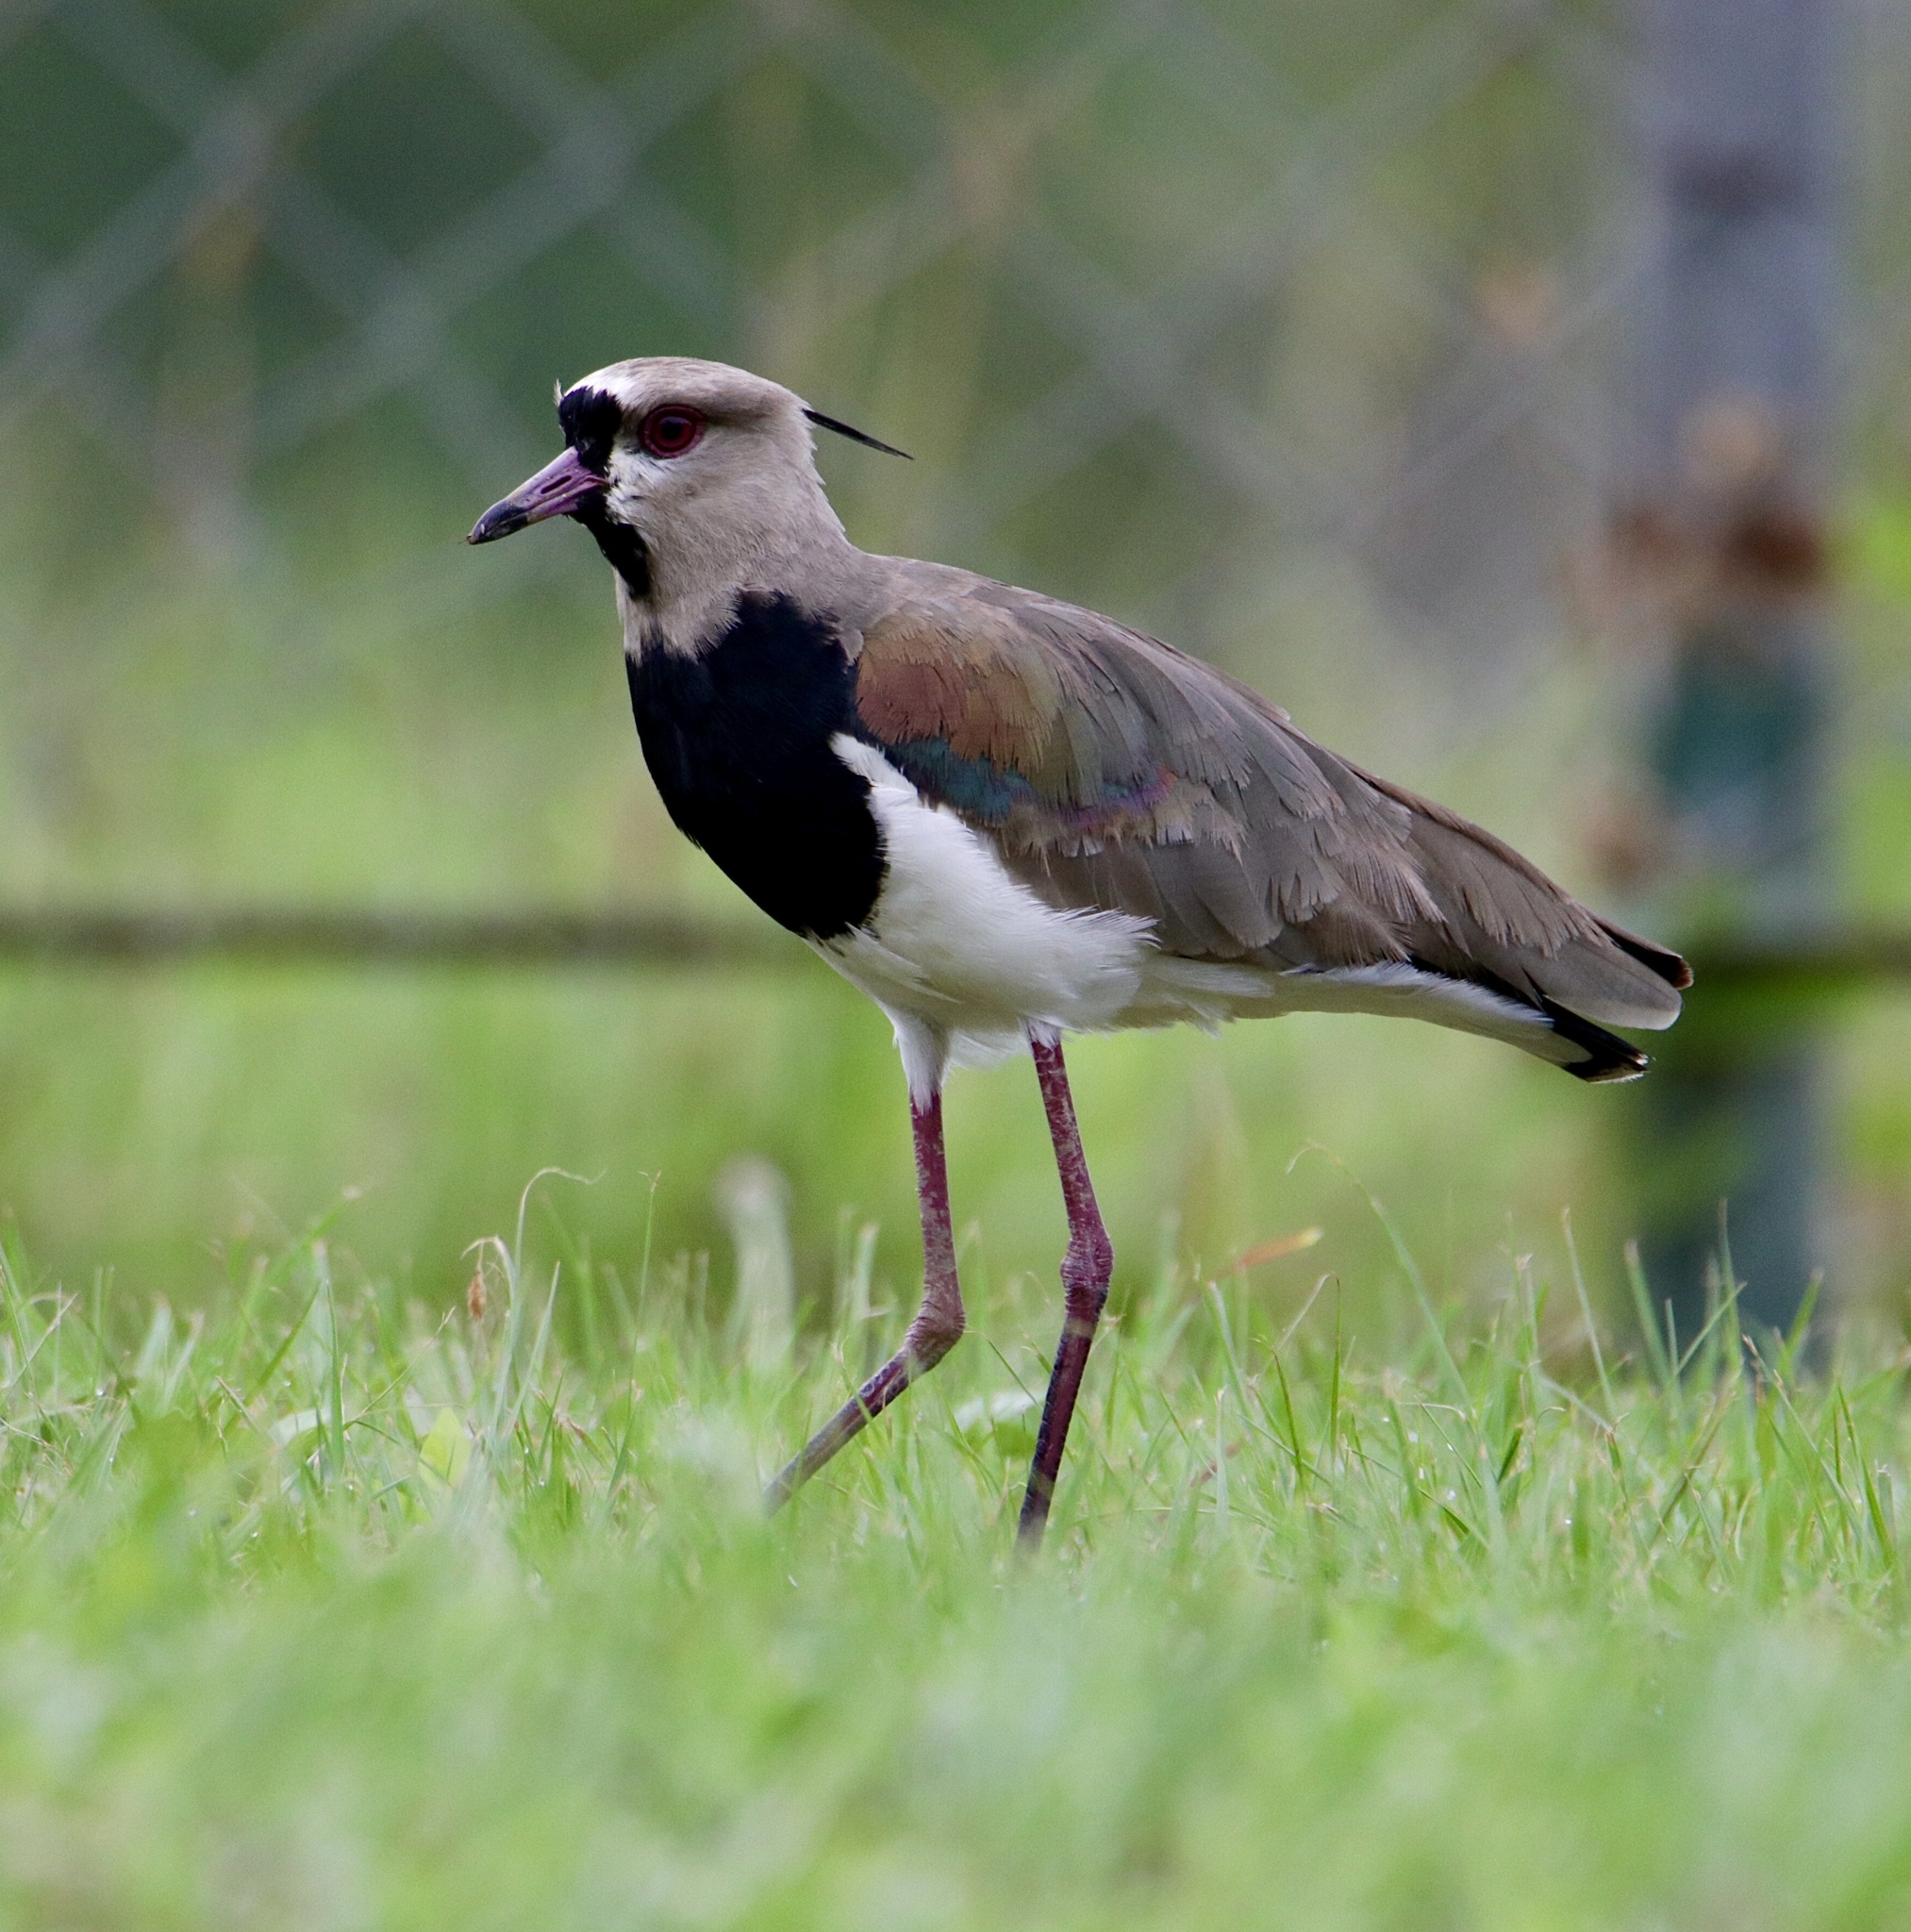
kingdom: Animalia
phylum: Chordata
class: Aves
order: Charadriiformes
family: Charadriidae
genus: Vanellus
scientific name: Vanellus chilensis
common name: Southern lapwing
